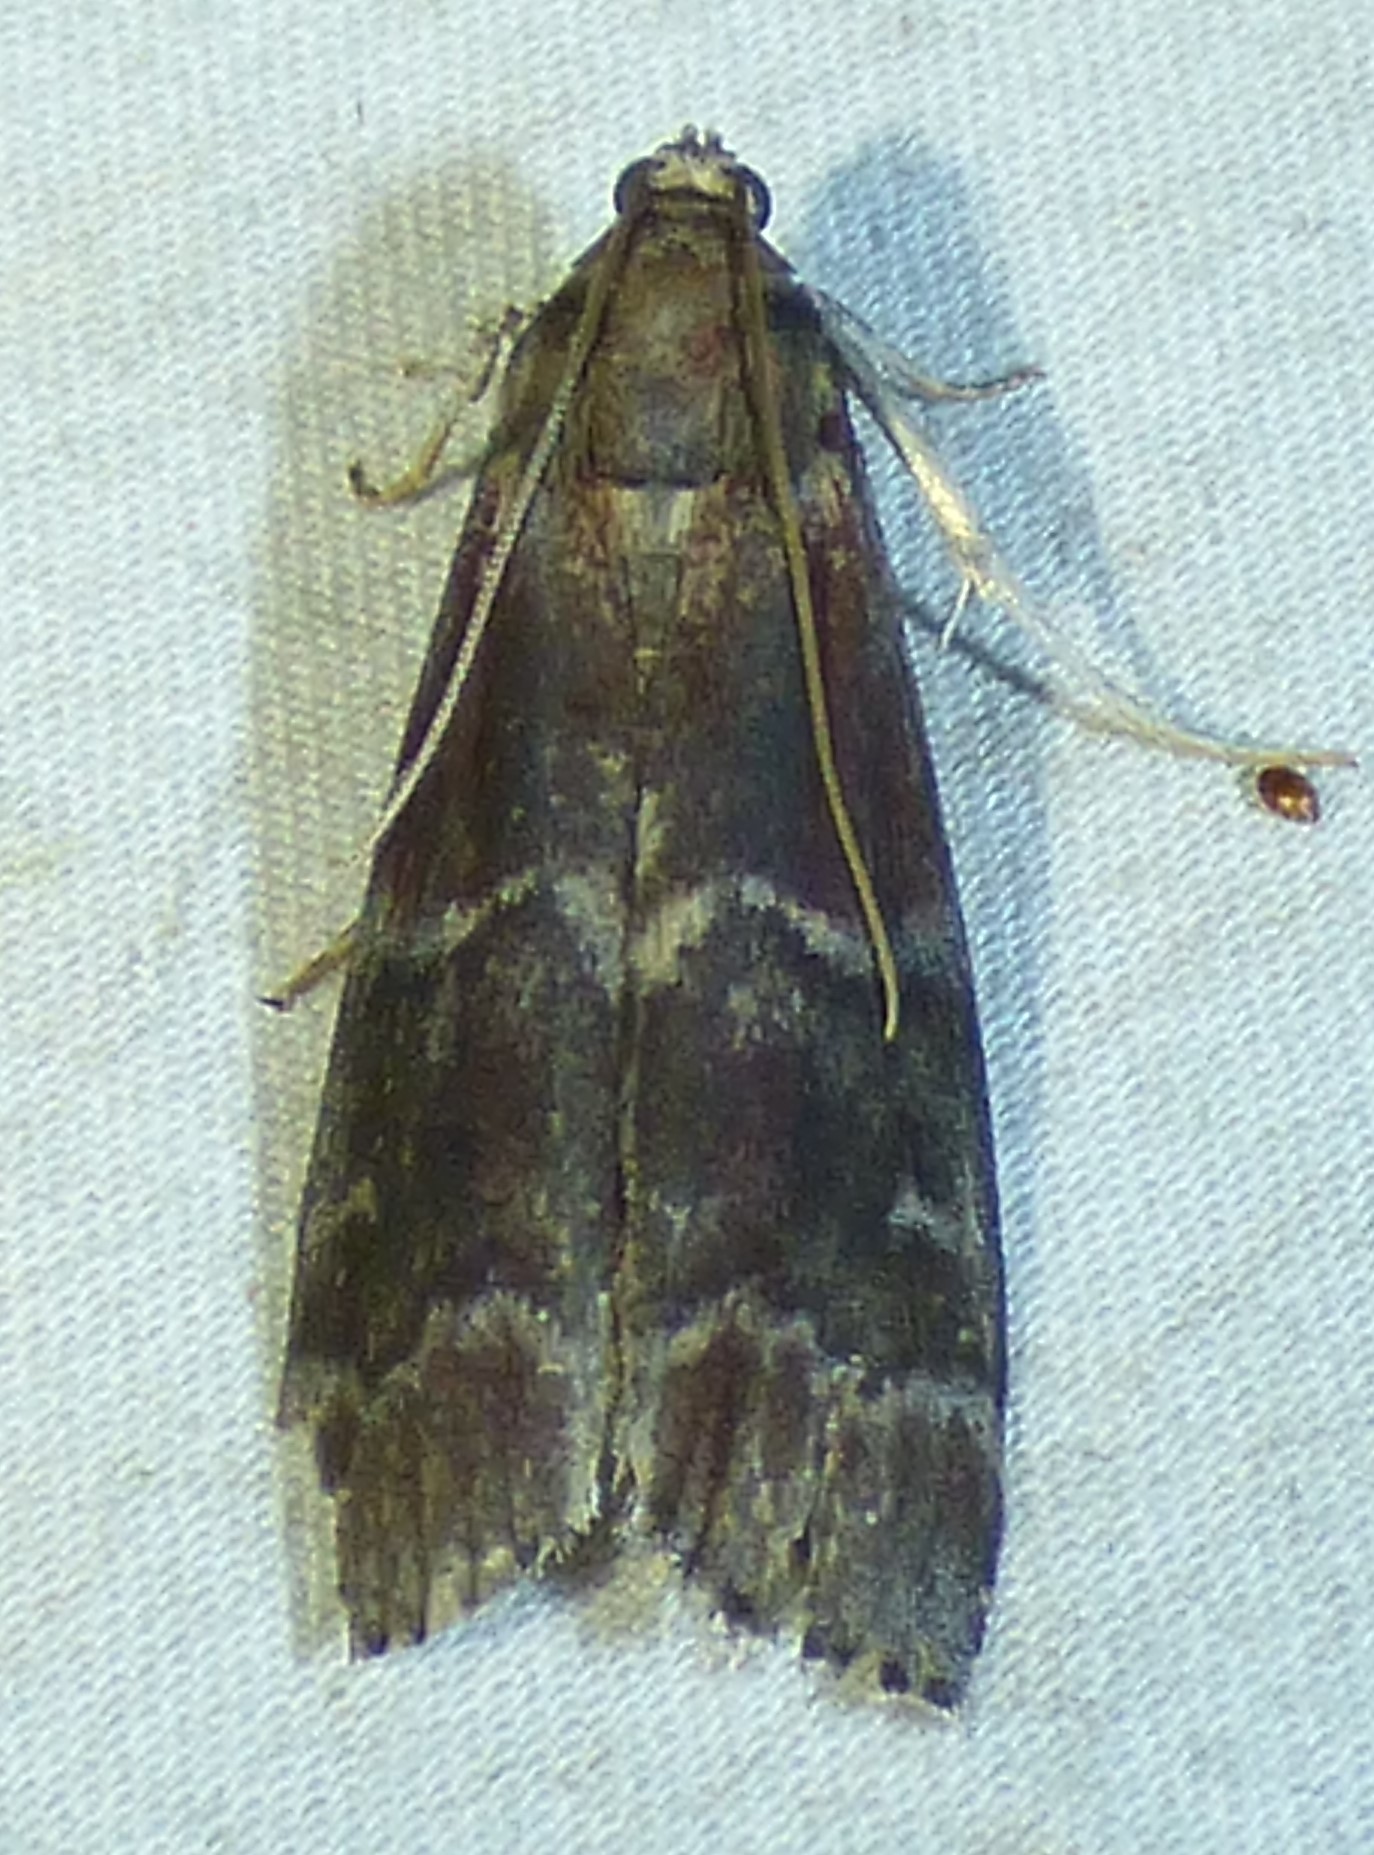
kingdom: Animalia
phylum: Arthropoda
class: Insecta
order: Lepidoptera
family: Pyralidae
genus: Euzophera
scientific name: Euzophera ostricolorella
